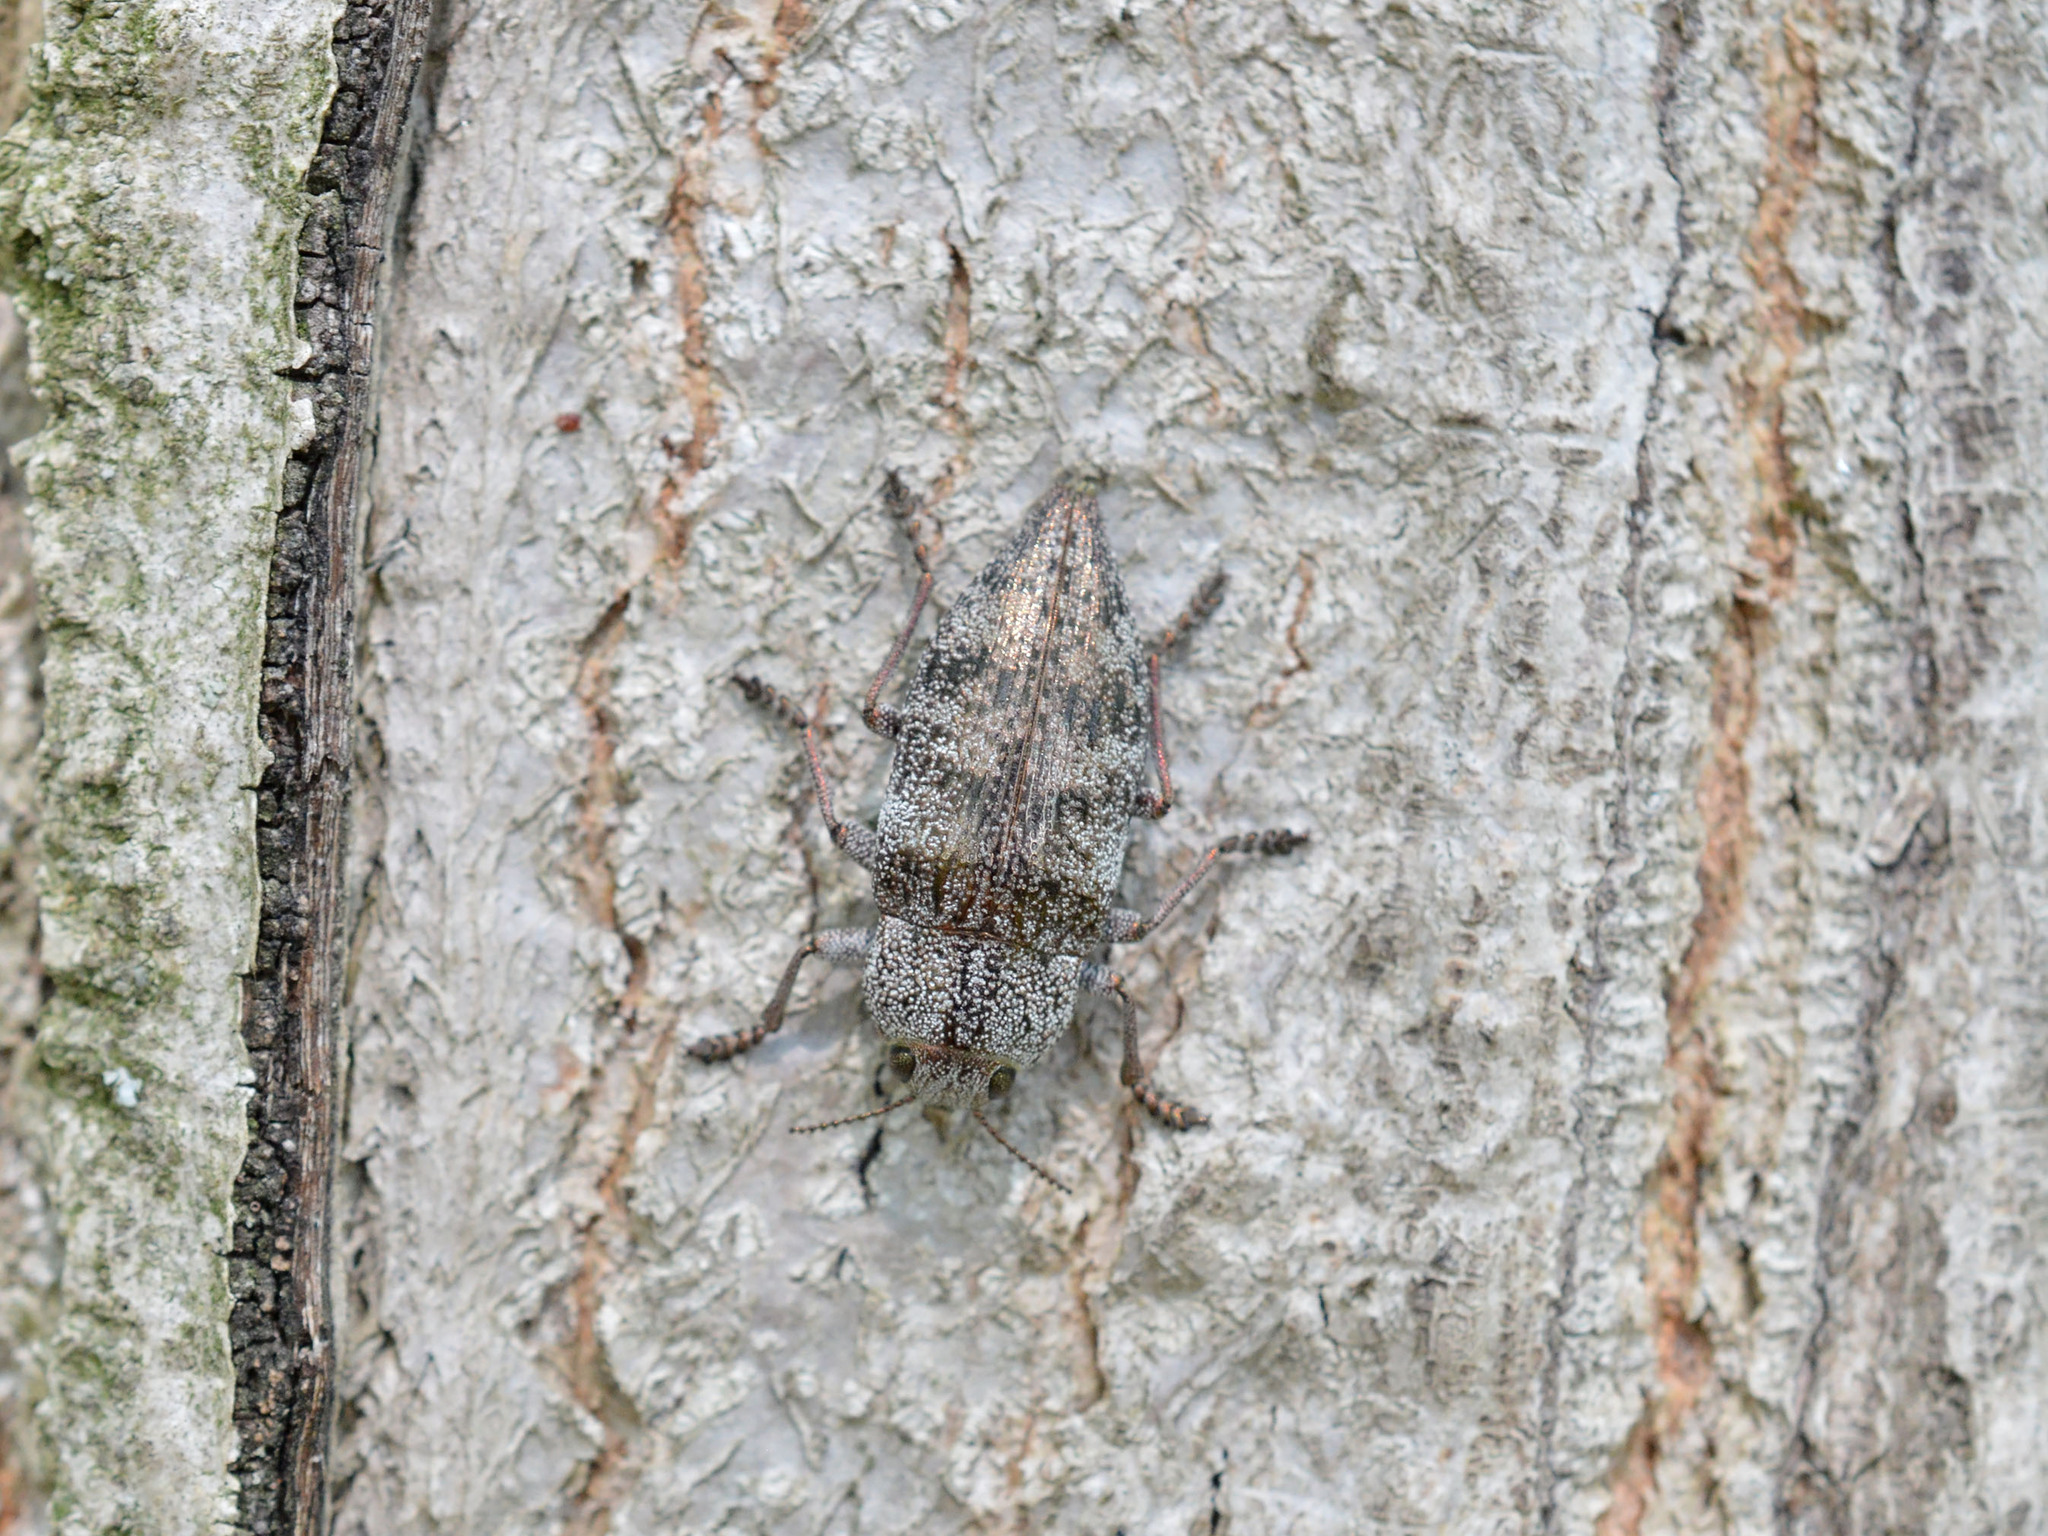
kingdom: Animalia
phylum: Arthropoda
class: Insecta
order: Coleoptera
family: Buprestidae
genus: Dicerca
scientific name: Dicerca aenea
